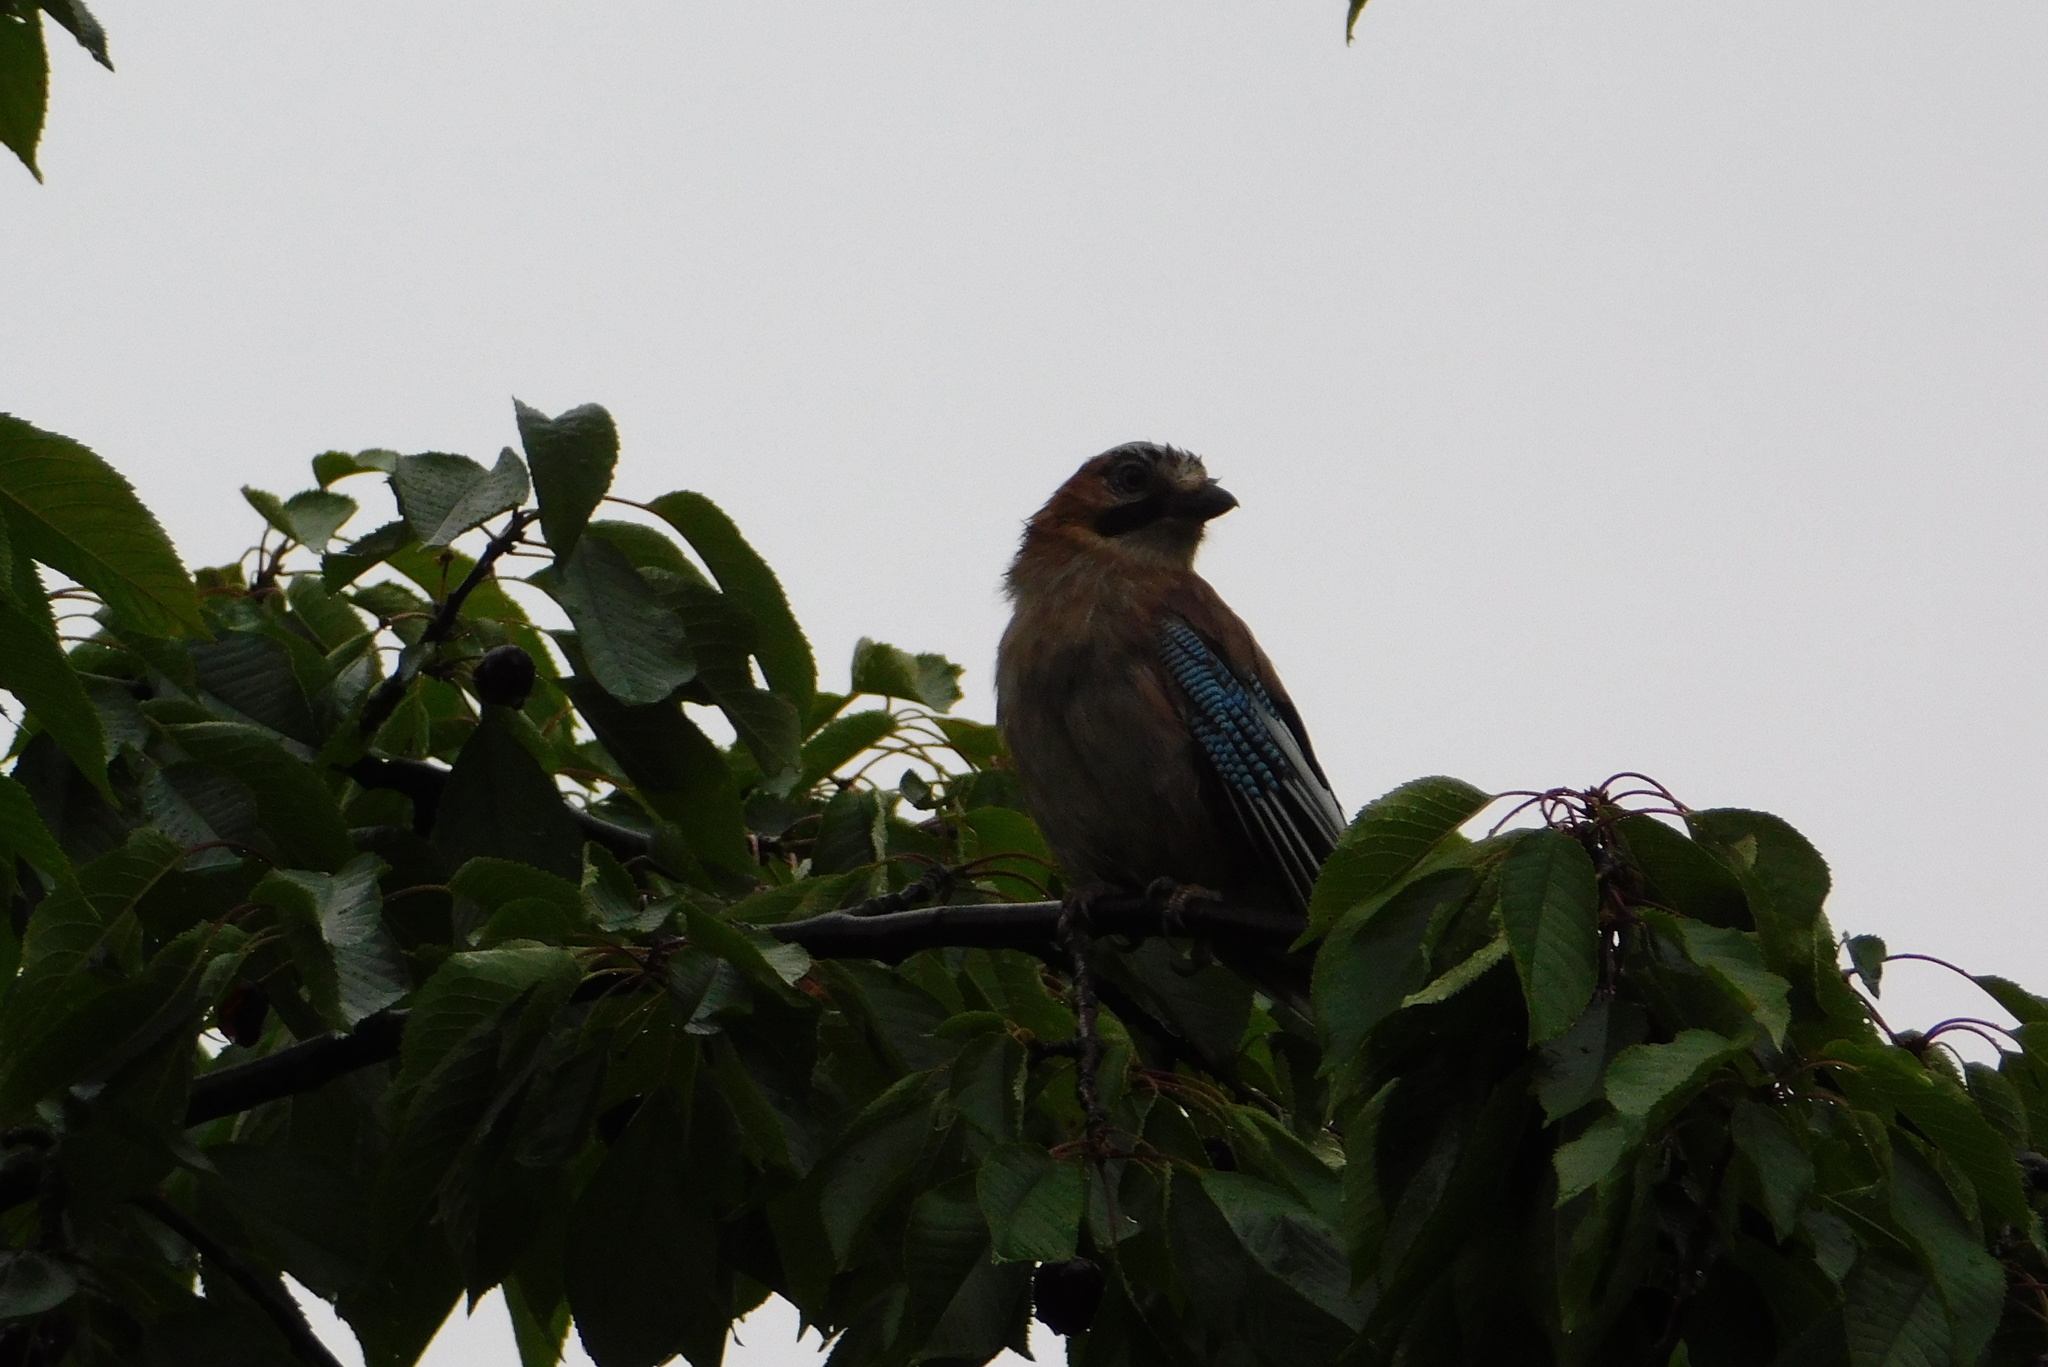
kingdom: Animalia
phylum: Chordata
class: Aves
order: Passeriformes
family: Corvidae
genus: Garrulus
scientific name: Garrulus glandarius
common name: Eurasian jay
